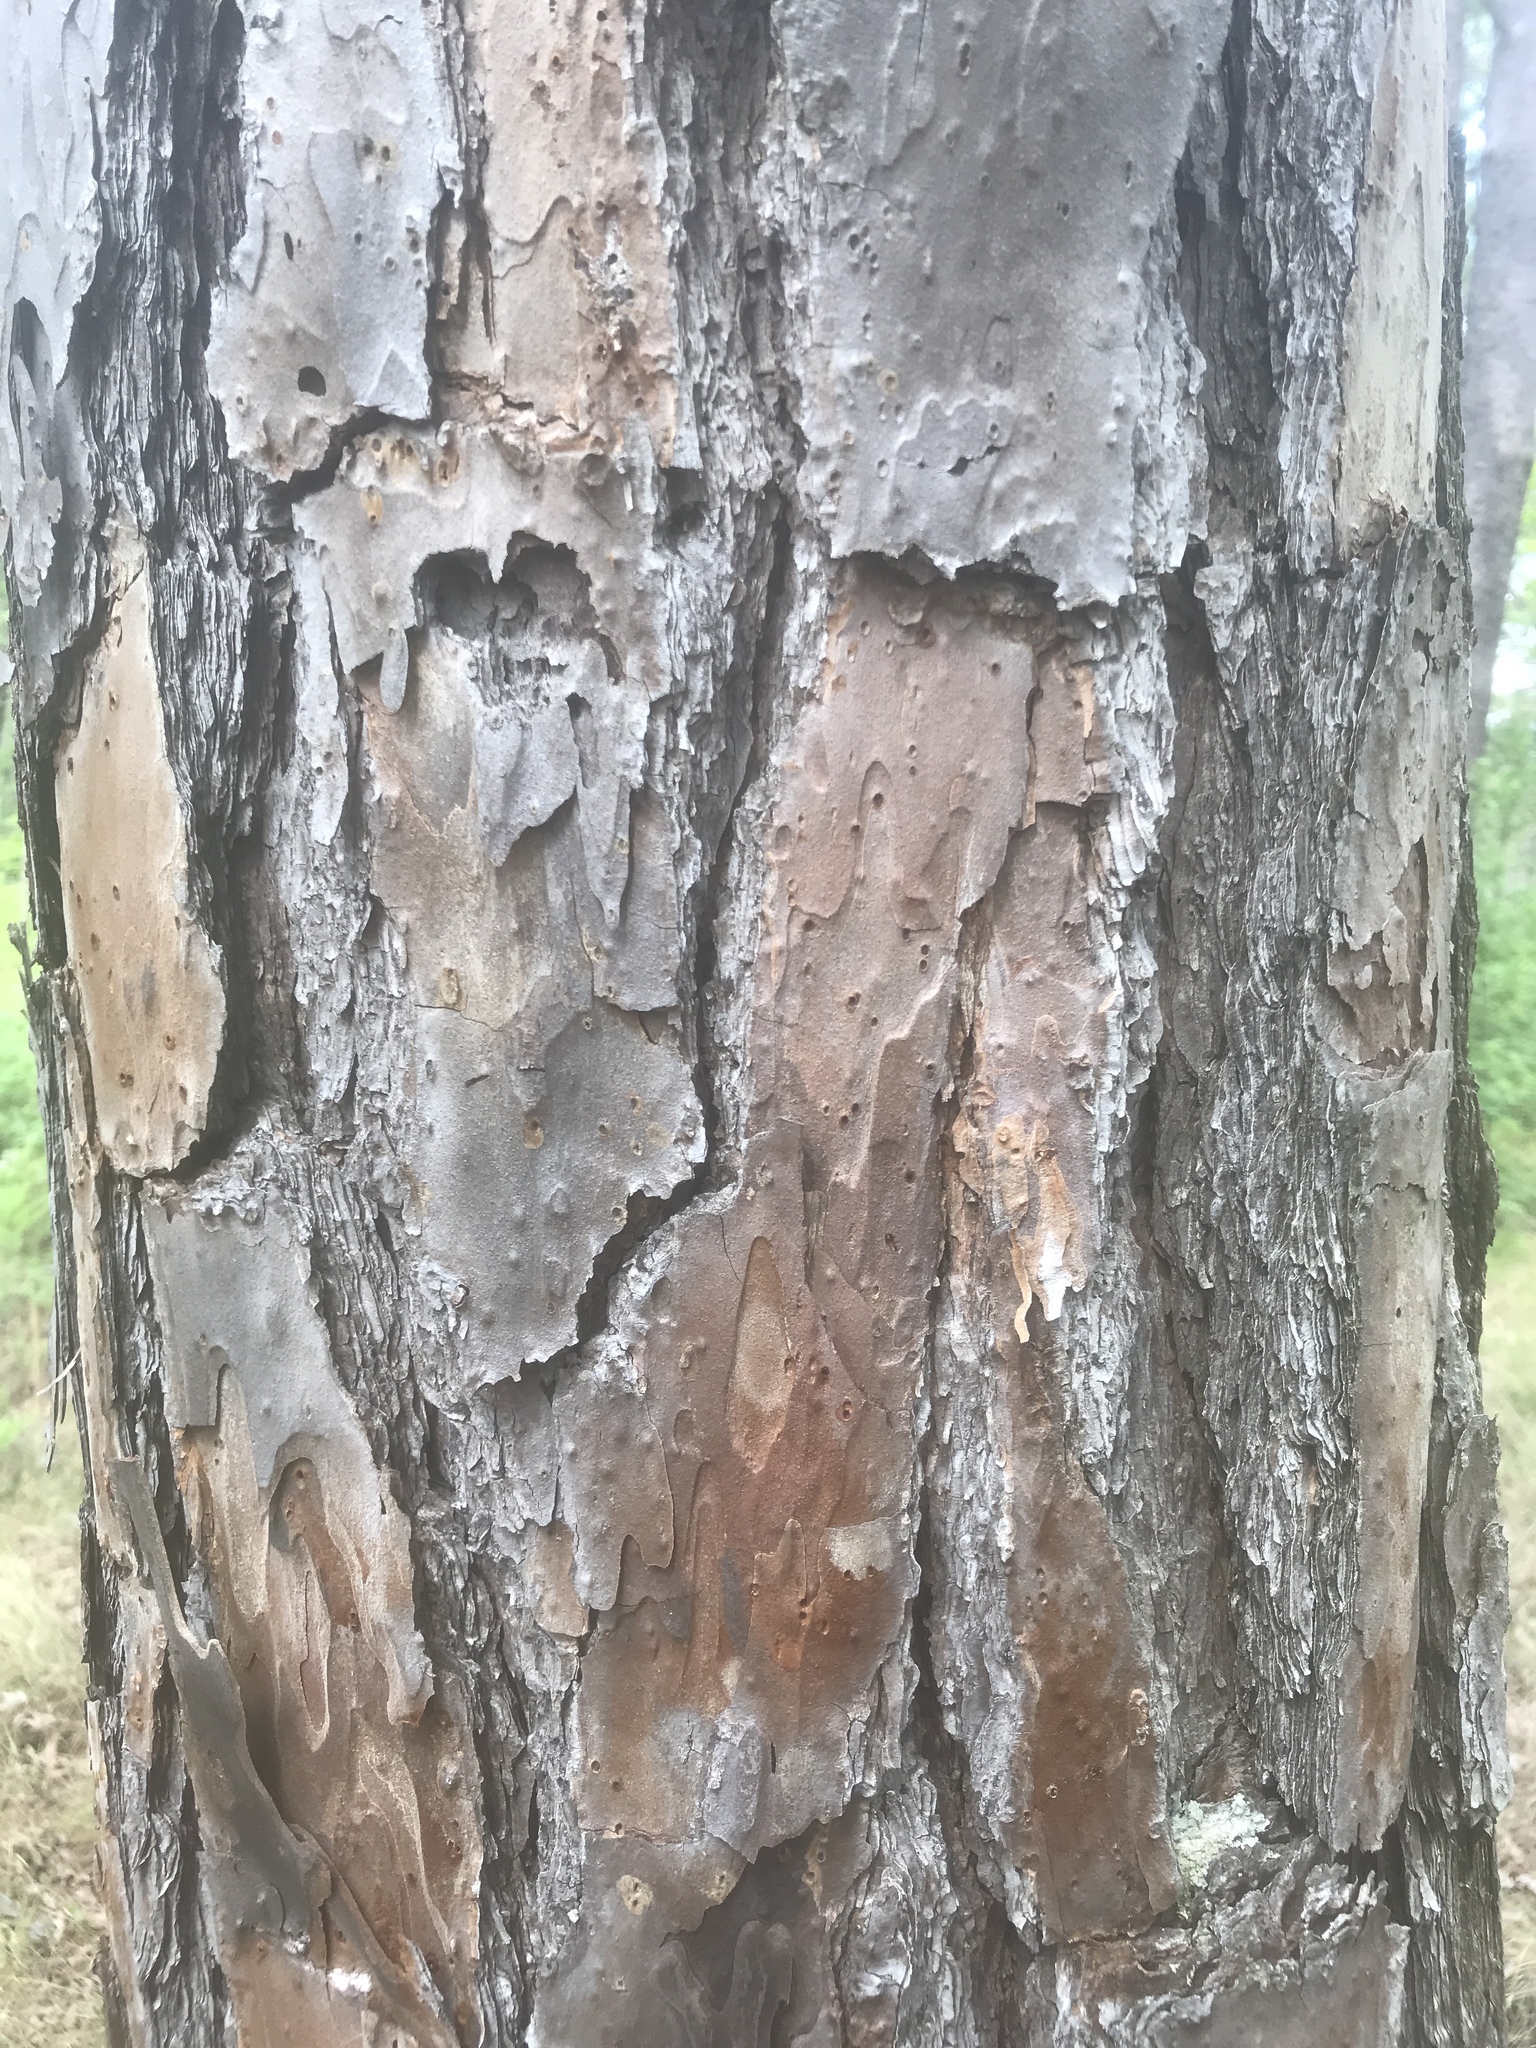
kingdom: Plantae
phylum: Tracheophyta
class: Pinopsida
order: Pinales
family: Pinaceae
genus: Pinus
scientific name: Pinus echinata
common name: Shortleaf pine
